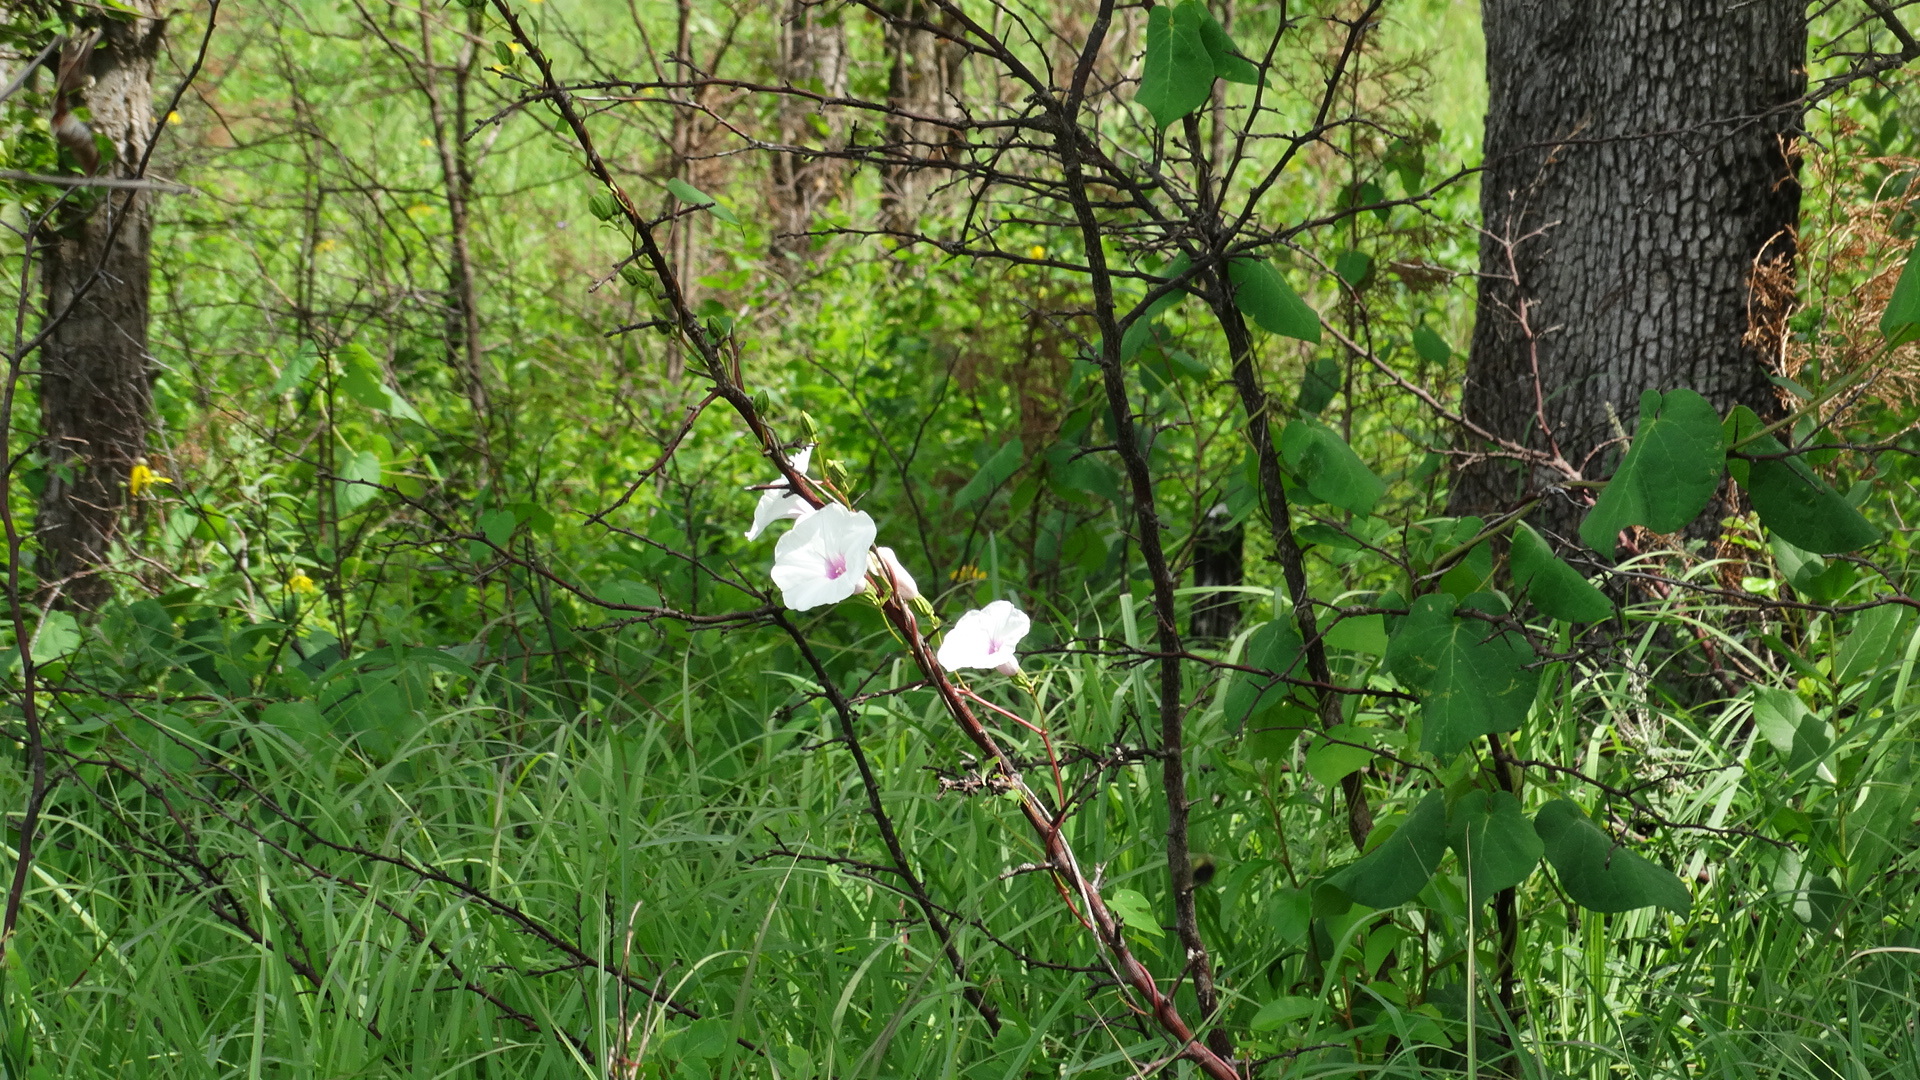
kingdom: Plantae
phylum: Tracheophyta
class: Magnoliopsida
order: Solanales
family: Convolvulaceae
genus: Ipomoea
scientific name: Ipomoea pandurata
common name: Man-of-the-earth
